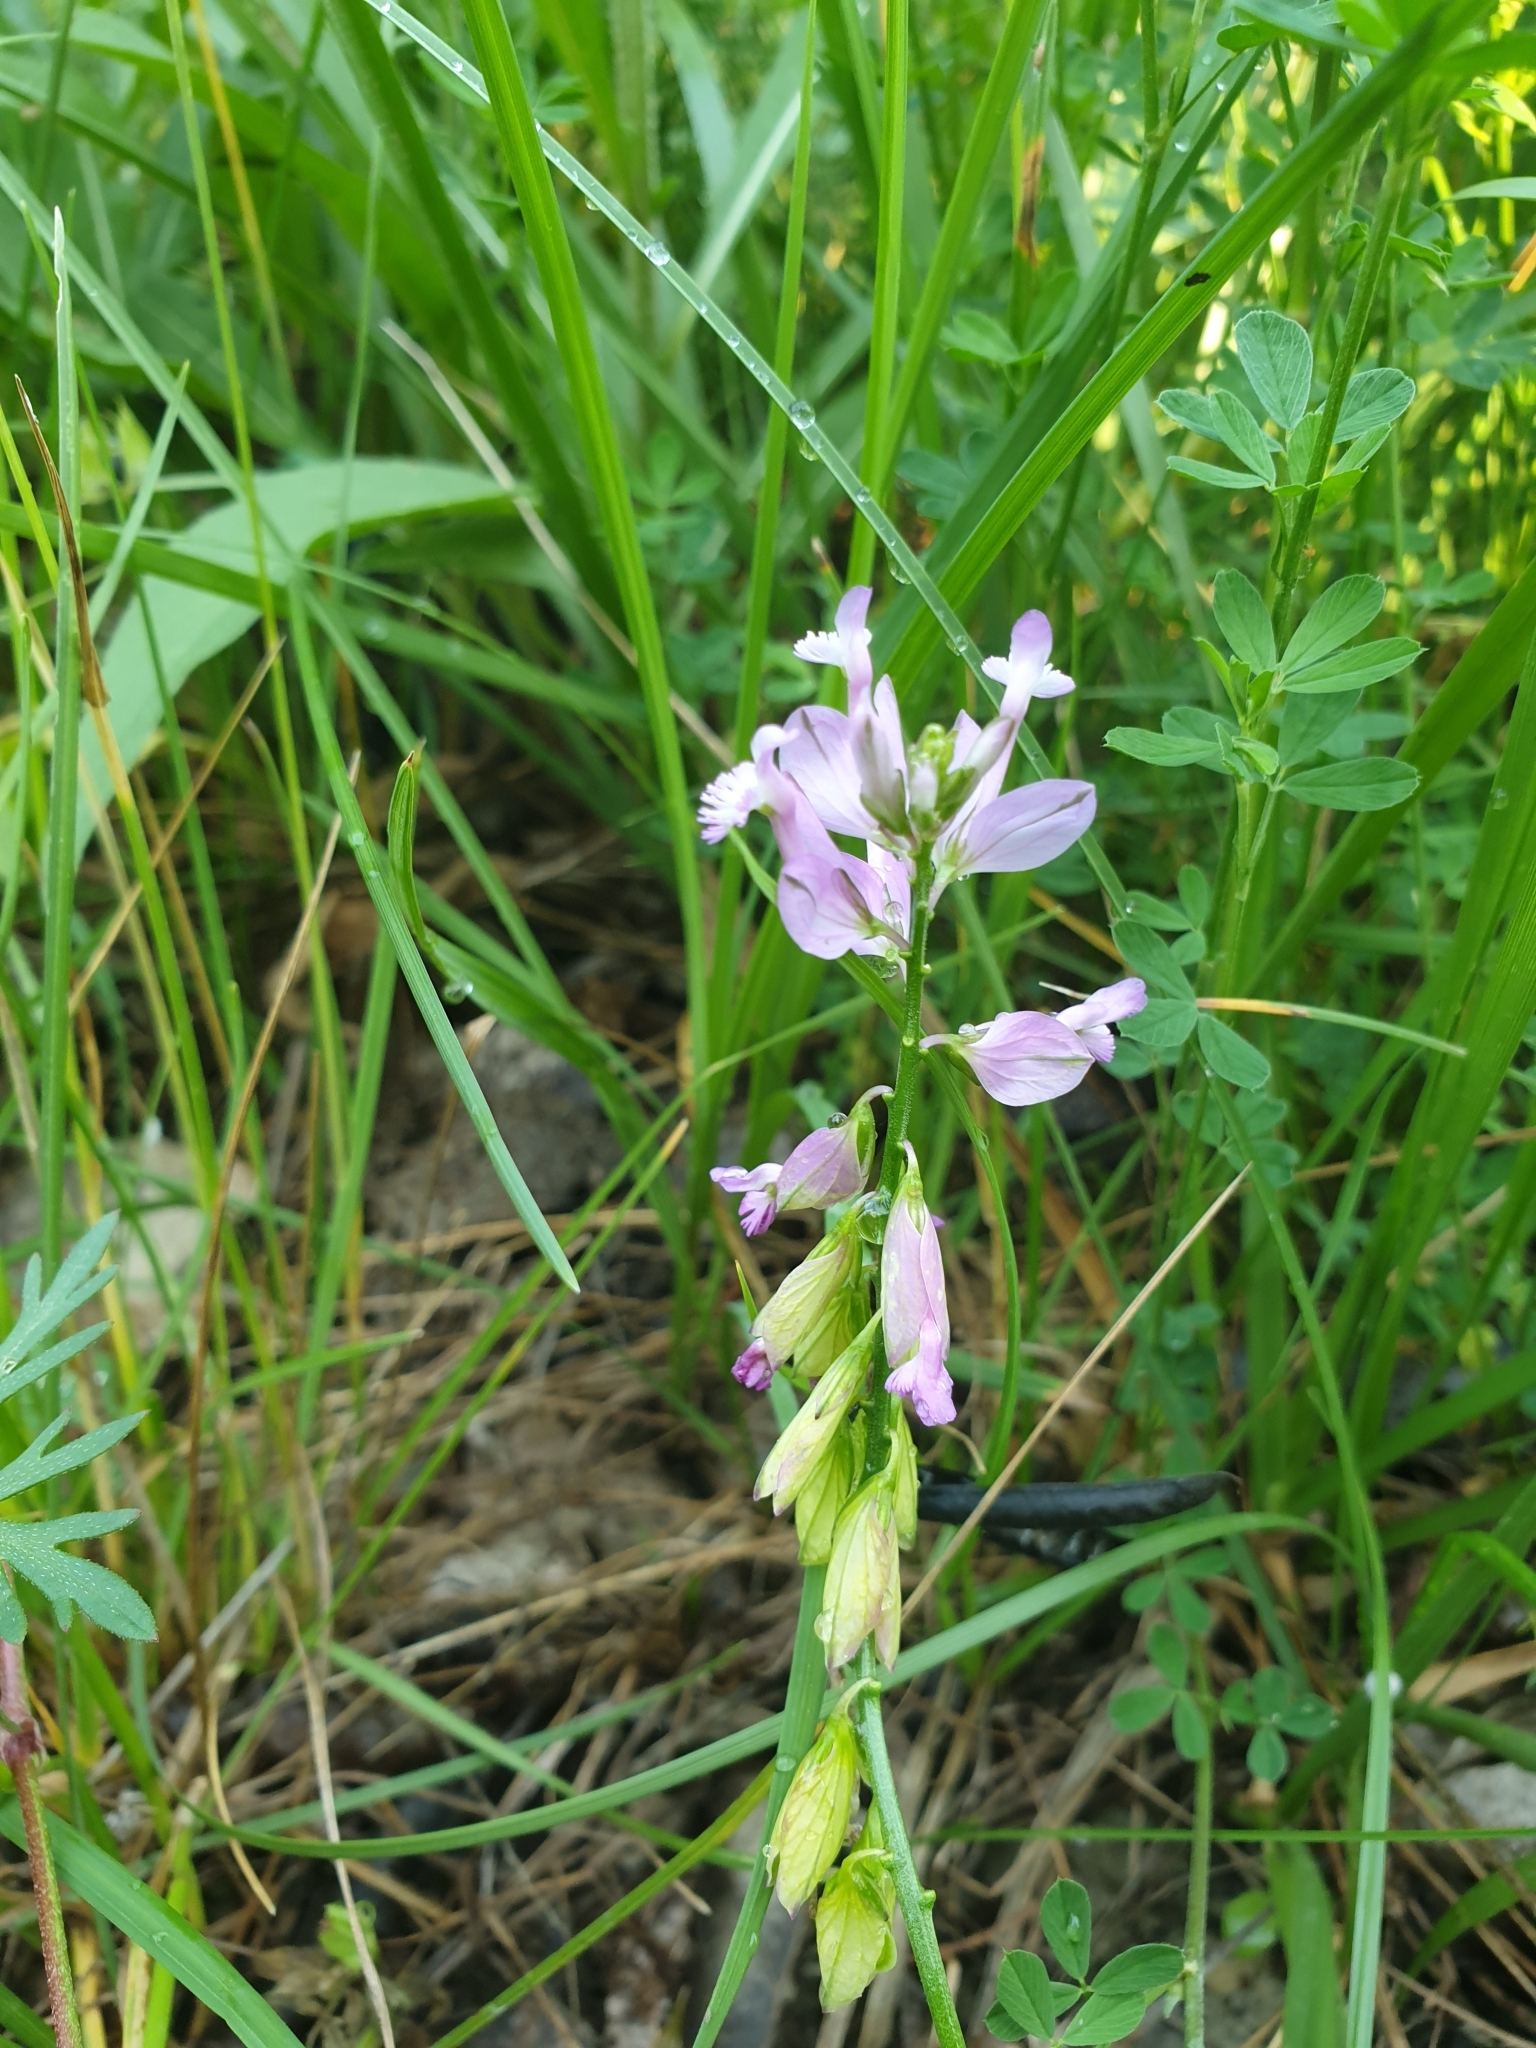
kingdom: Plantae
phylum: Tracheophyta
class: Magnoliopsida
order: Fabales
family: Polygalaceae
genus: Polygala
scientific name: Polygala major
